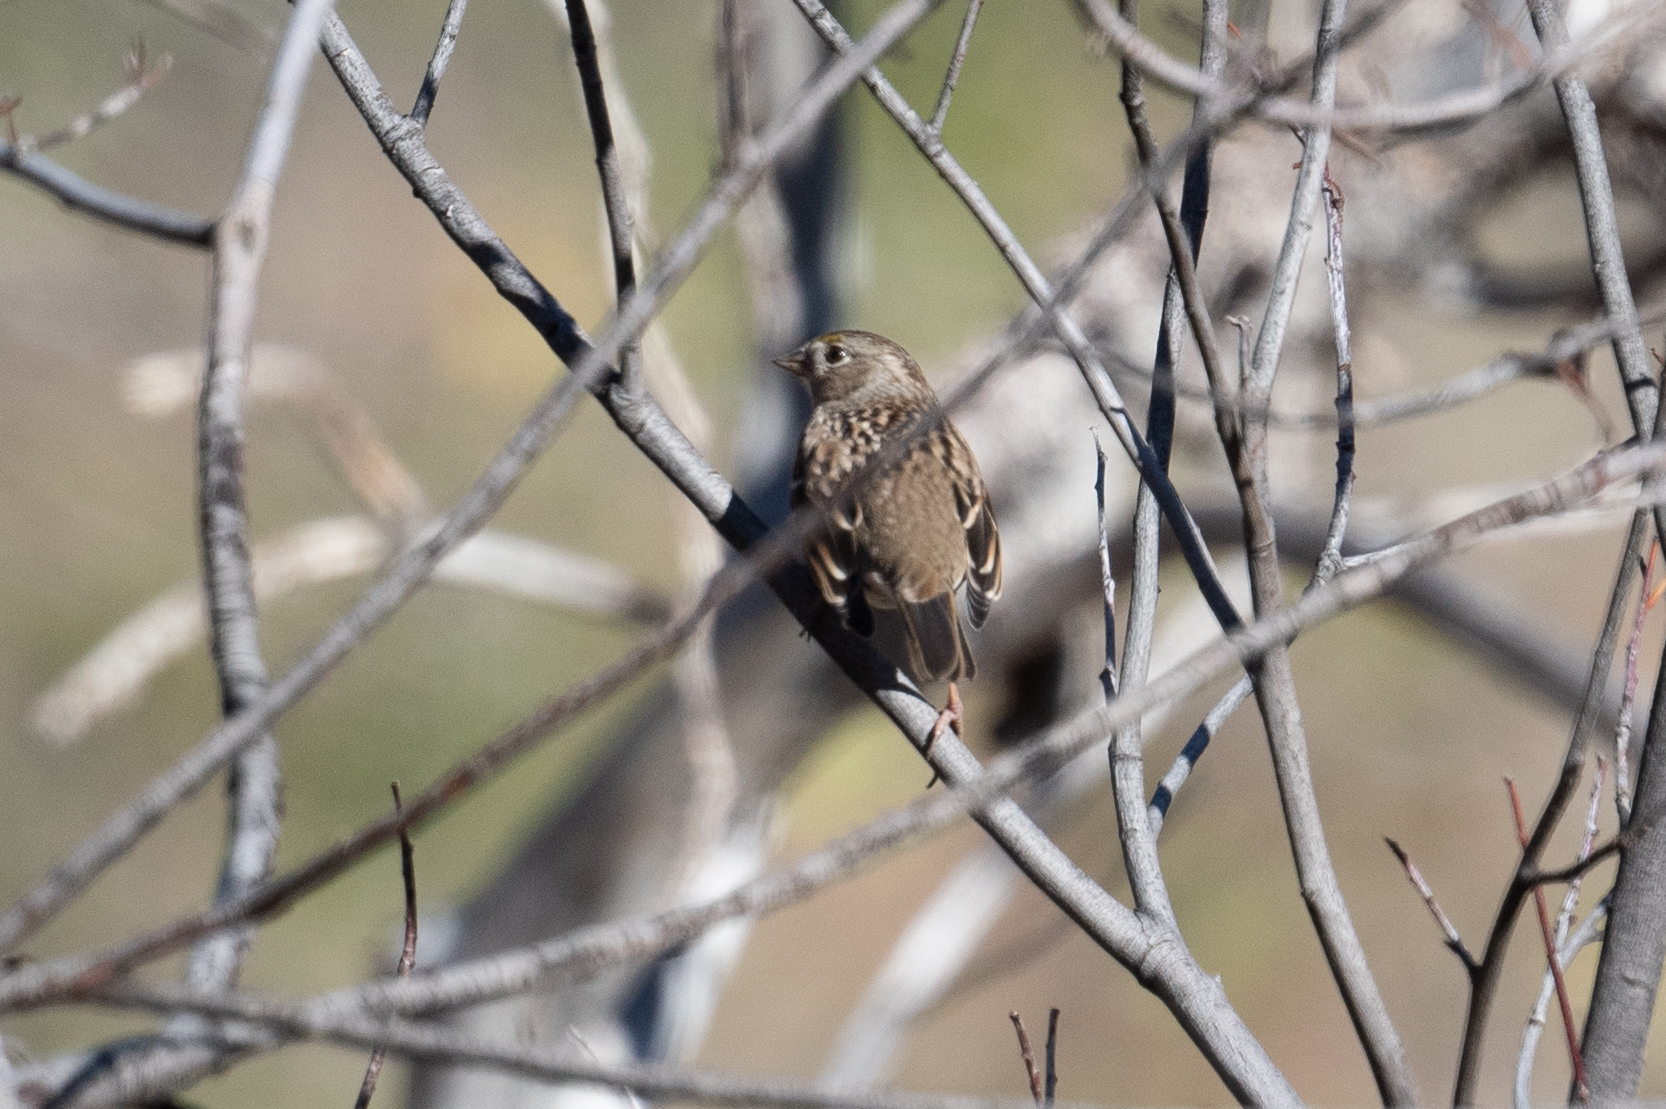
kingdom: Animalia
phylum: Chordata
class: Aves
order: Passeriformes
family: Passerellidae
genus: Zonotrichia
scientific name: Zonotrichia atricapilla
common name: Golden-crowned sparrow
